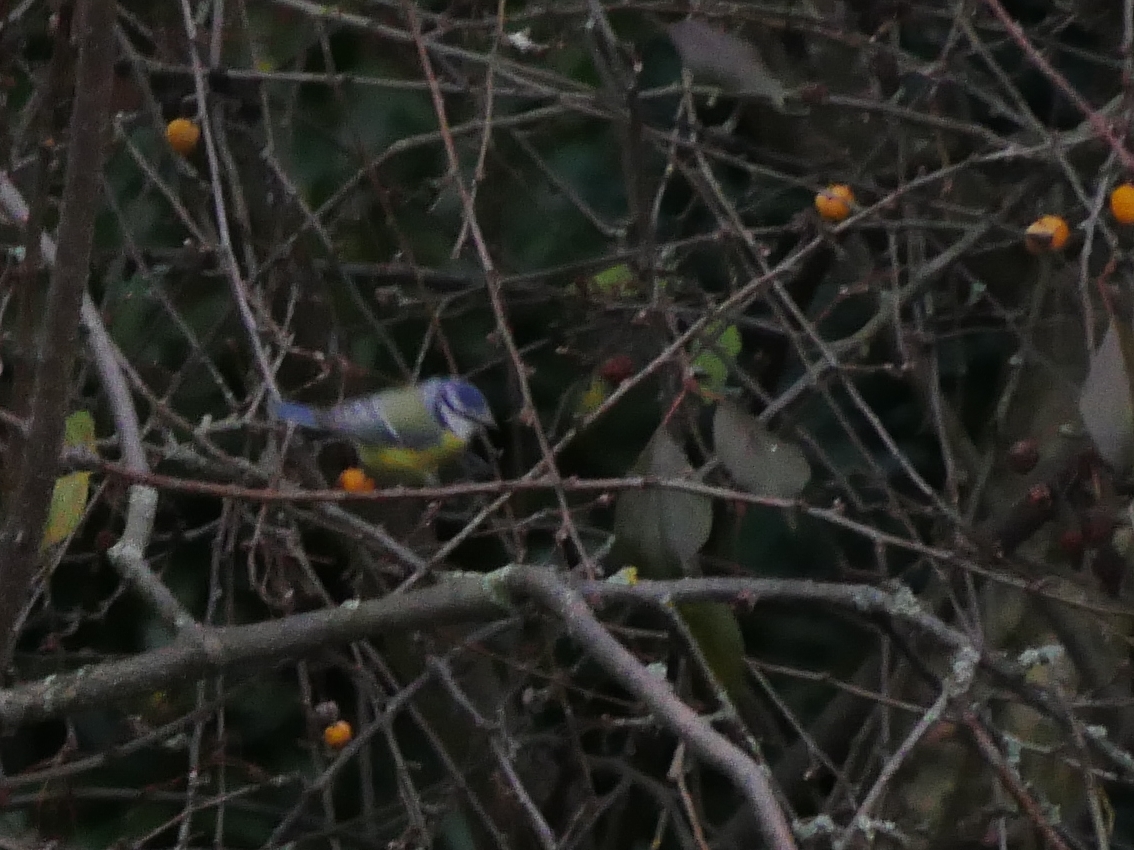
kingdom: Animalia
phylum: Chordata
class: Aves
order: Passeriformes
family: Paridae
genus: Cyanistes
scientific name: Cyanistes caeruleus
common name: Eurasian blue tit
